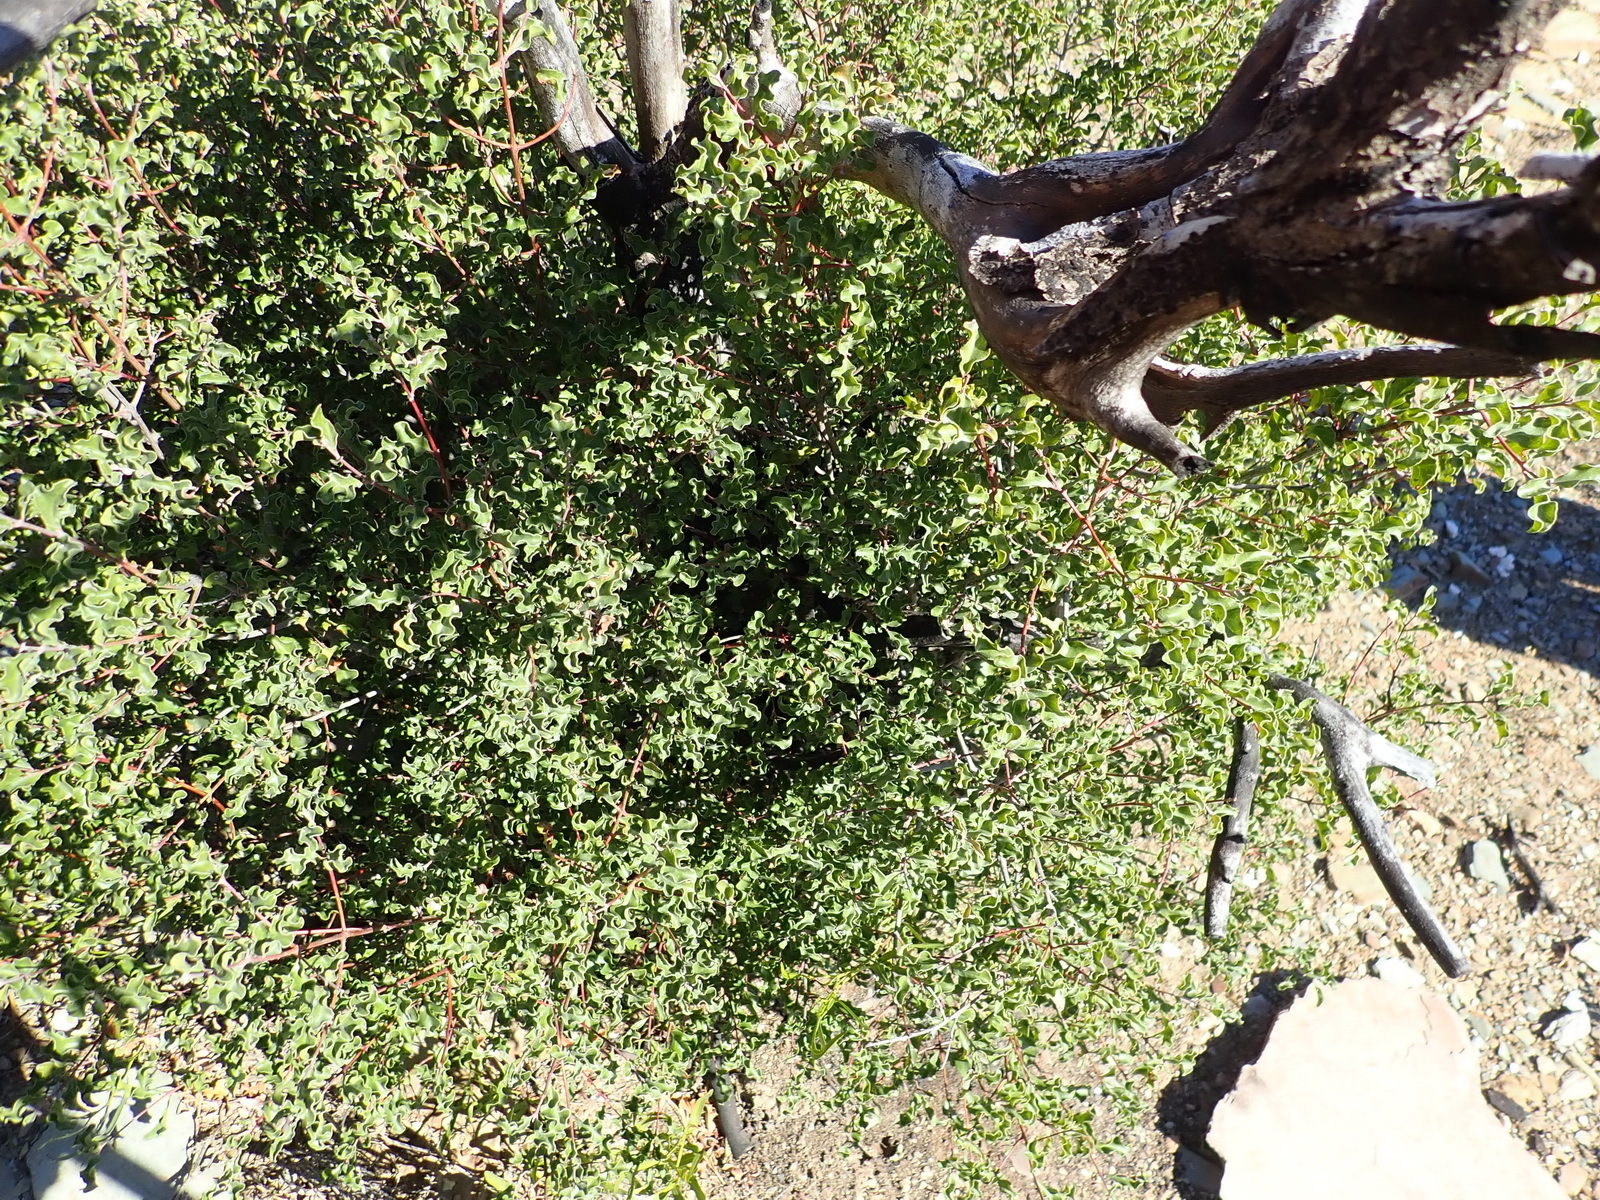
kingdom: Plantae
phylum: Tracheophyta
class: Magnoliopsida
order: Ericales
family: Ebenaceae
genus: Euclea
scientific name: Euclea undulata
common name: Small-leaved guarri
